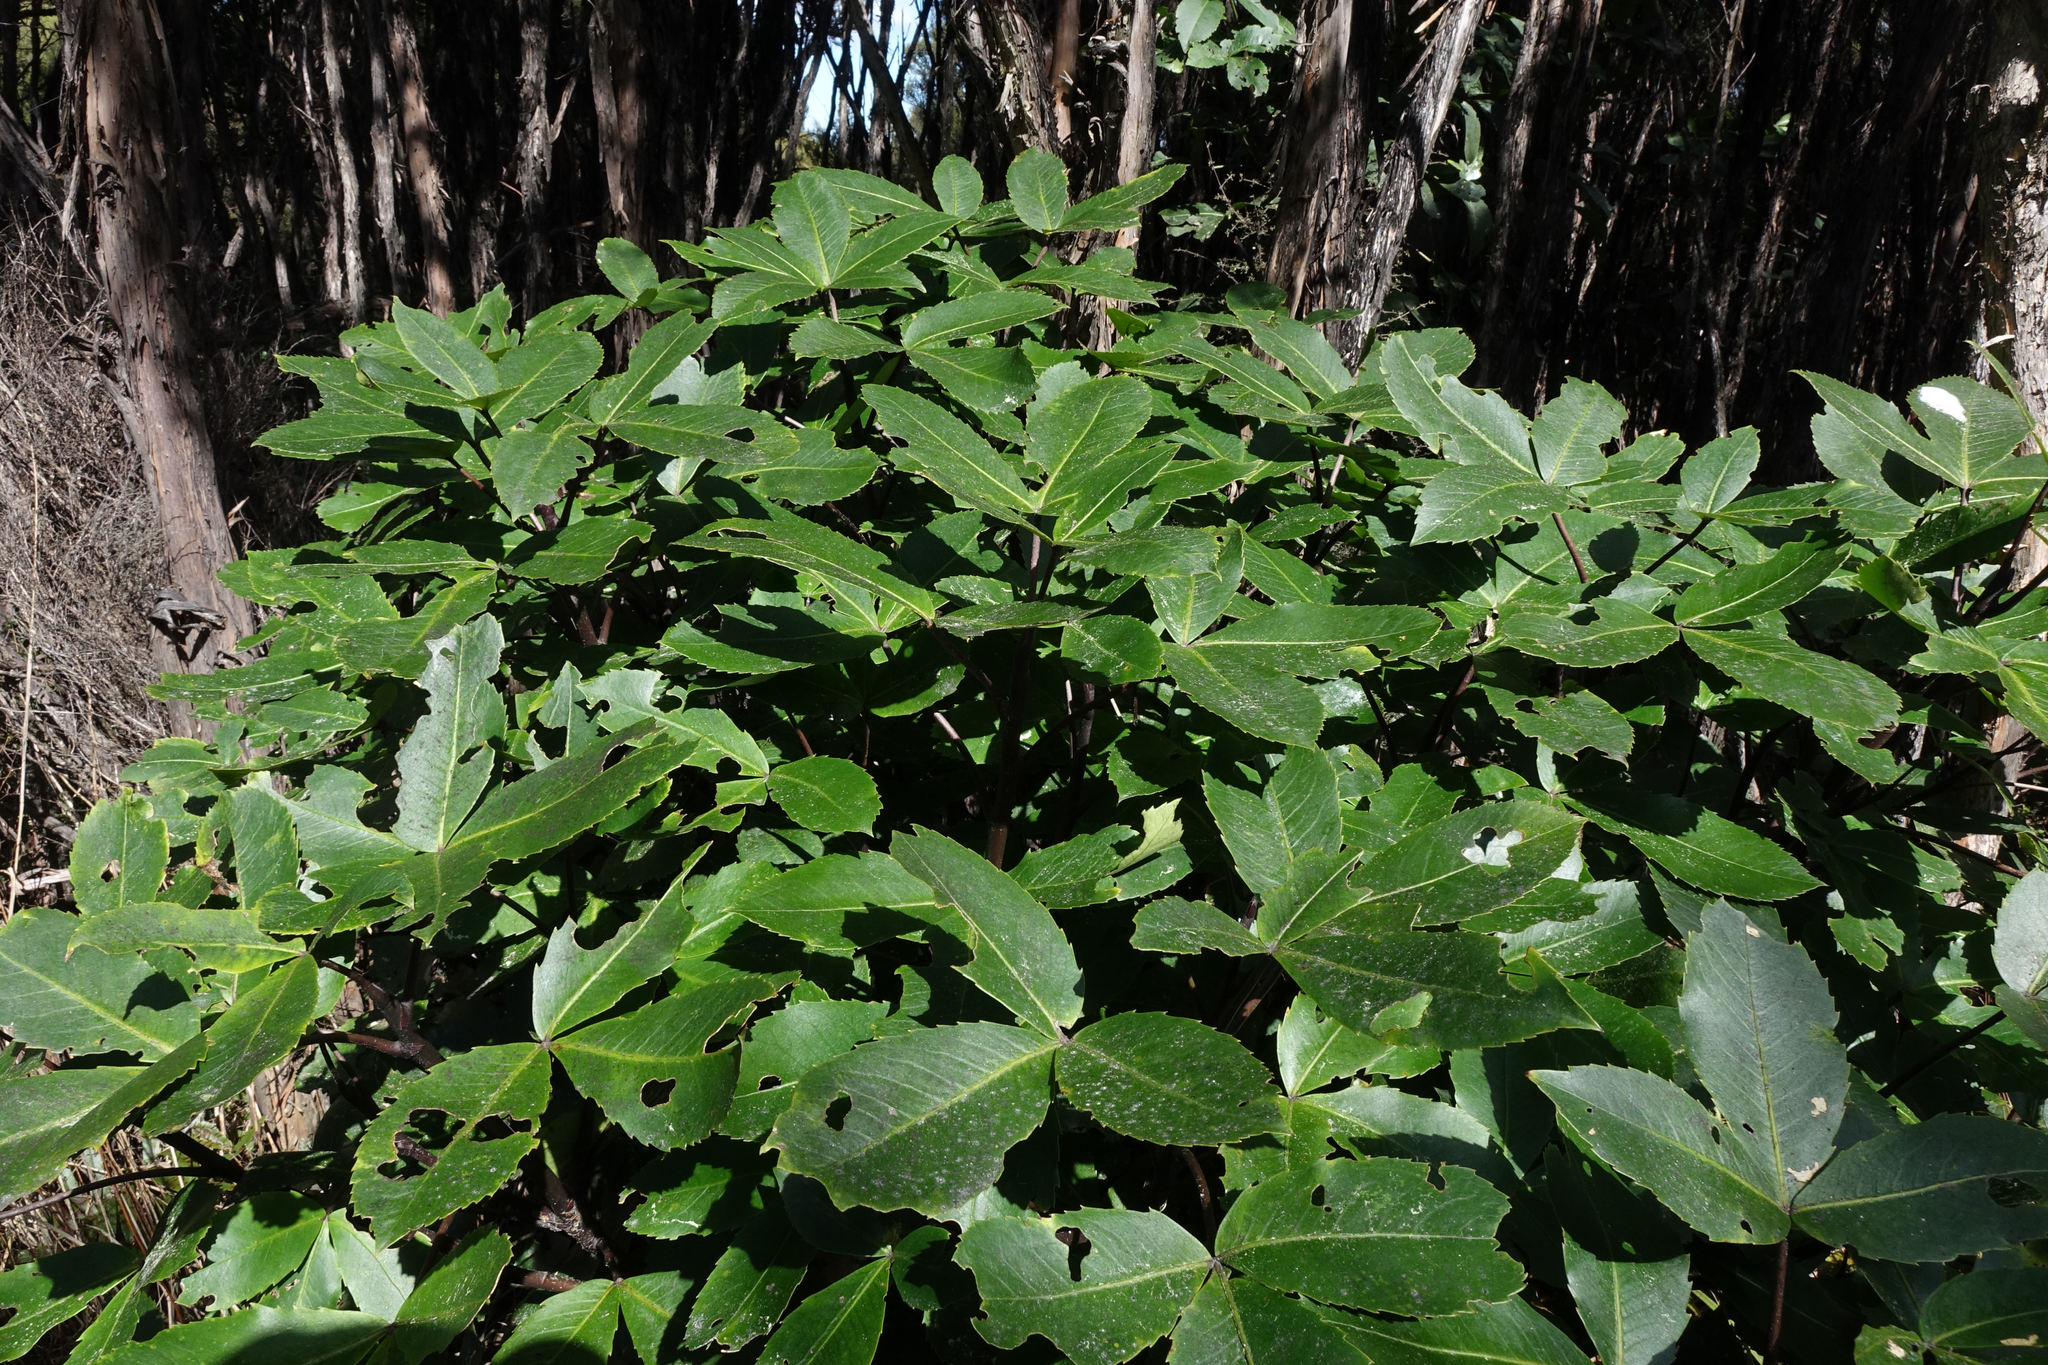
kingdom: Plantae
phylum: Tracheophyta
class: Magnoliopsida
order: Apiales
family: Araliaceae
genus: Neopanax
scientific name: Neopanax colensoi
